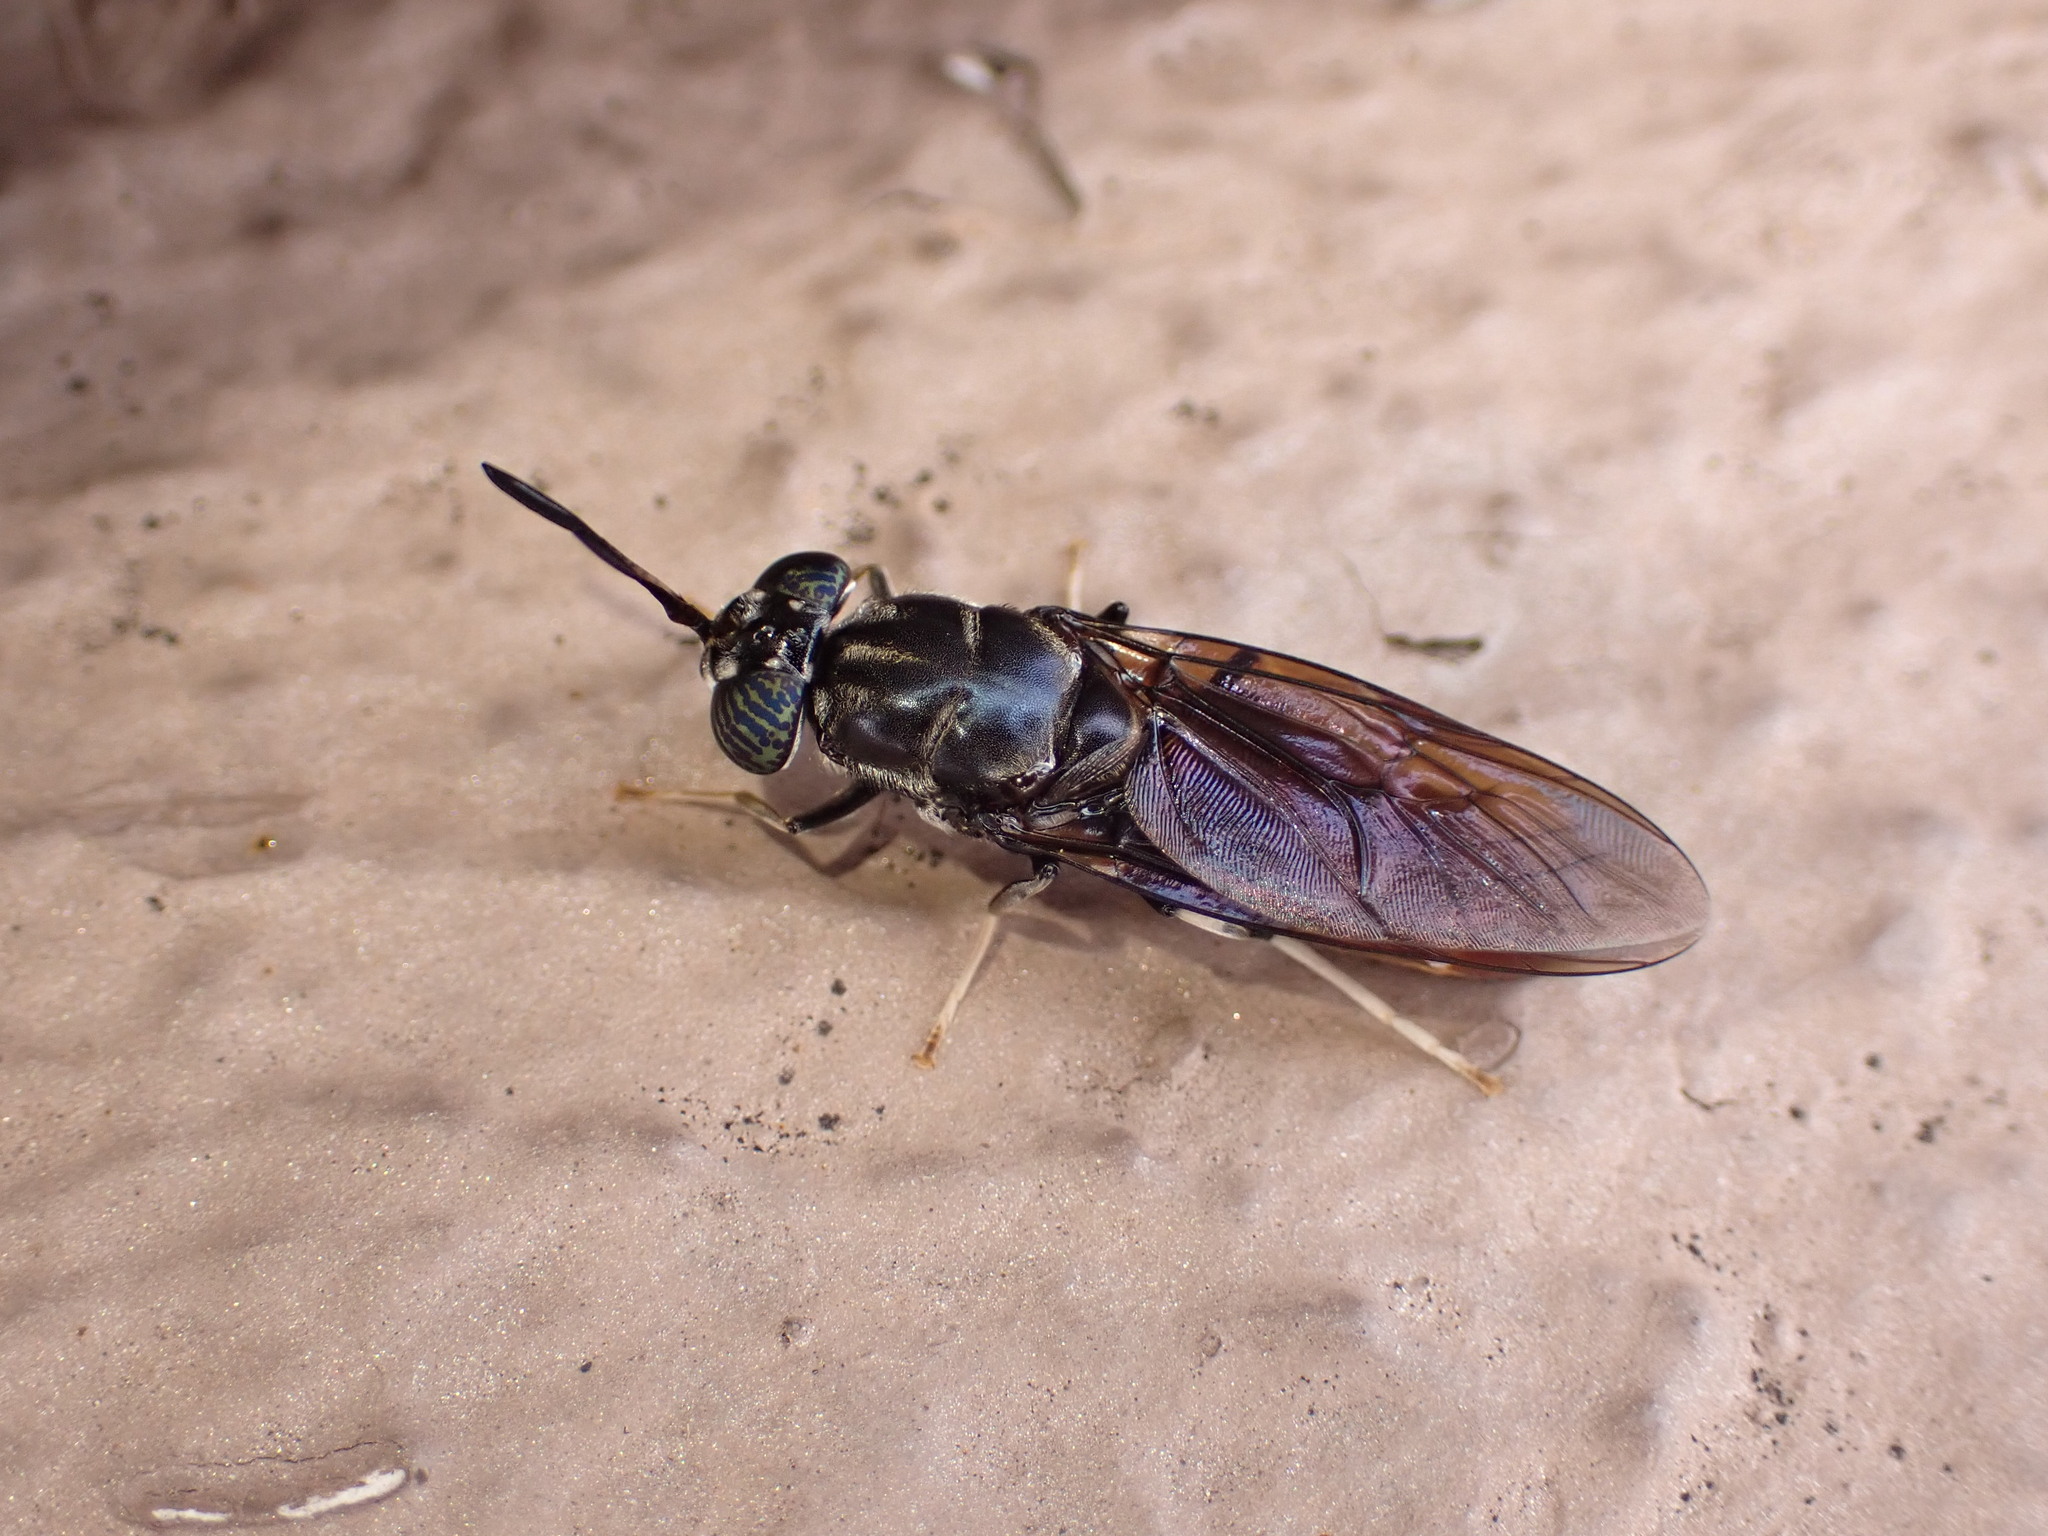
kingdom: Animalia
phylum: Arthropoda
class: Insecta
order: Diptera
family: Stratiomyidae
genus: Hermetia
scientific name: Hermetia illucens
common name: Black soldier fly
